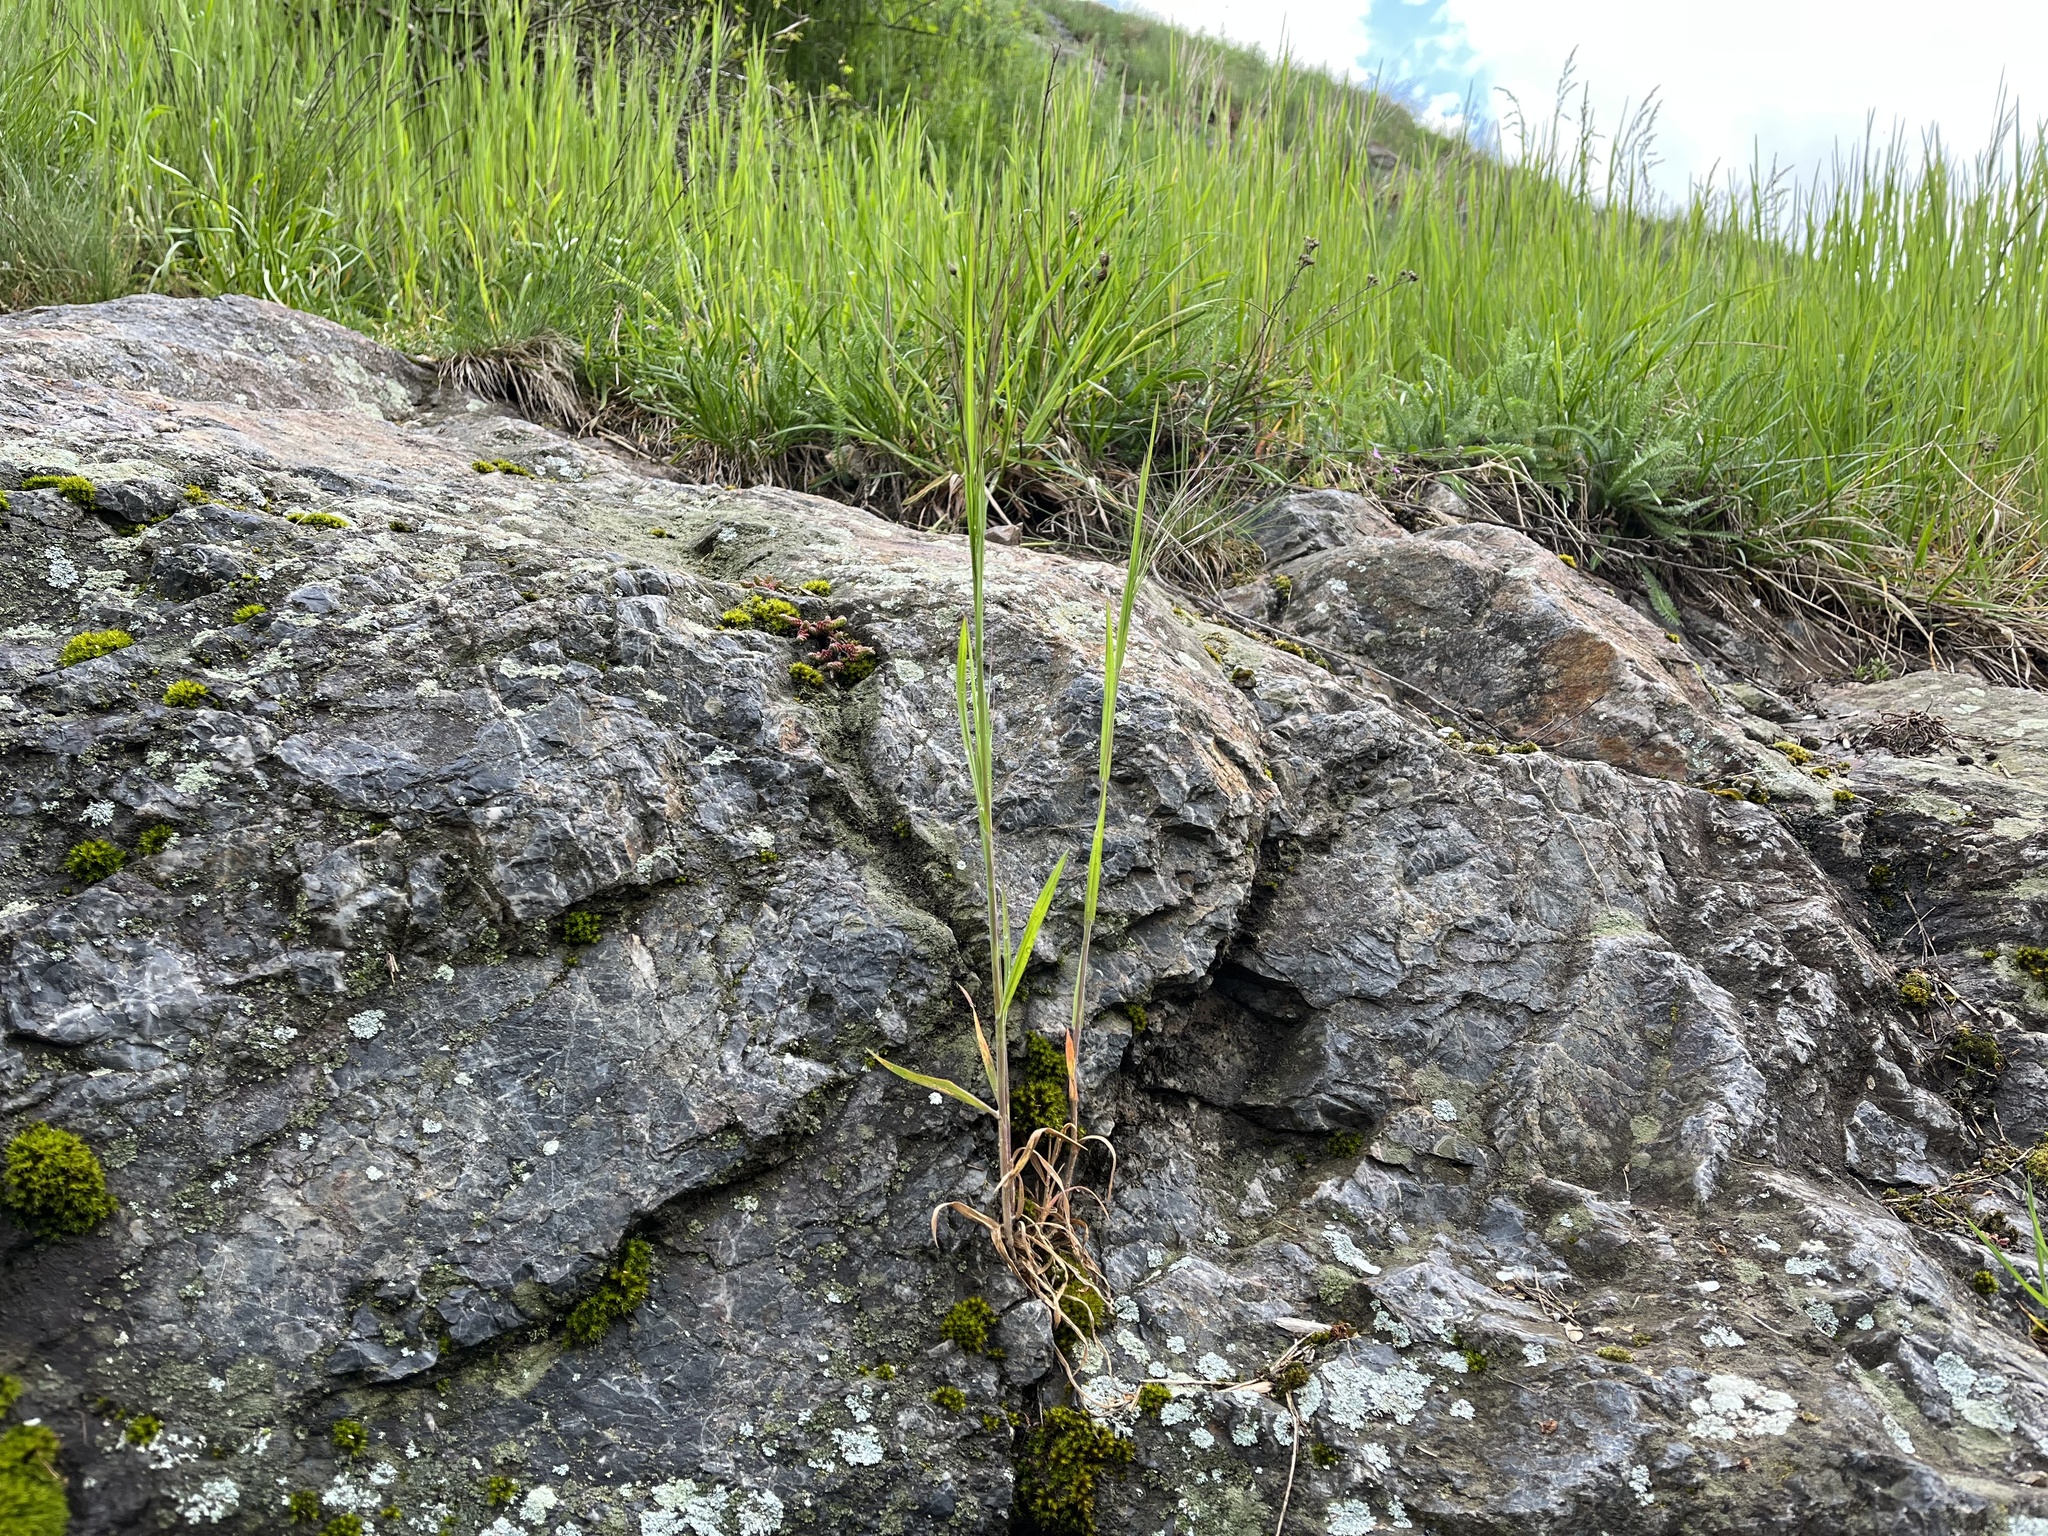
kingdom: Plantae
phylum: Tracheophyta
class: Liliopsida
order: Poales
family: Poaceae
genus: Bromus
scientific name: Bromus sterilis
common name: Poverty brome
